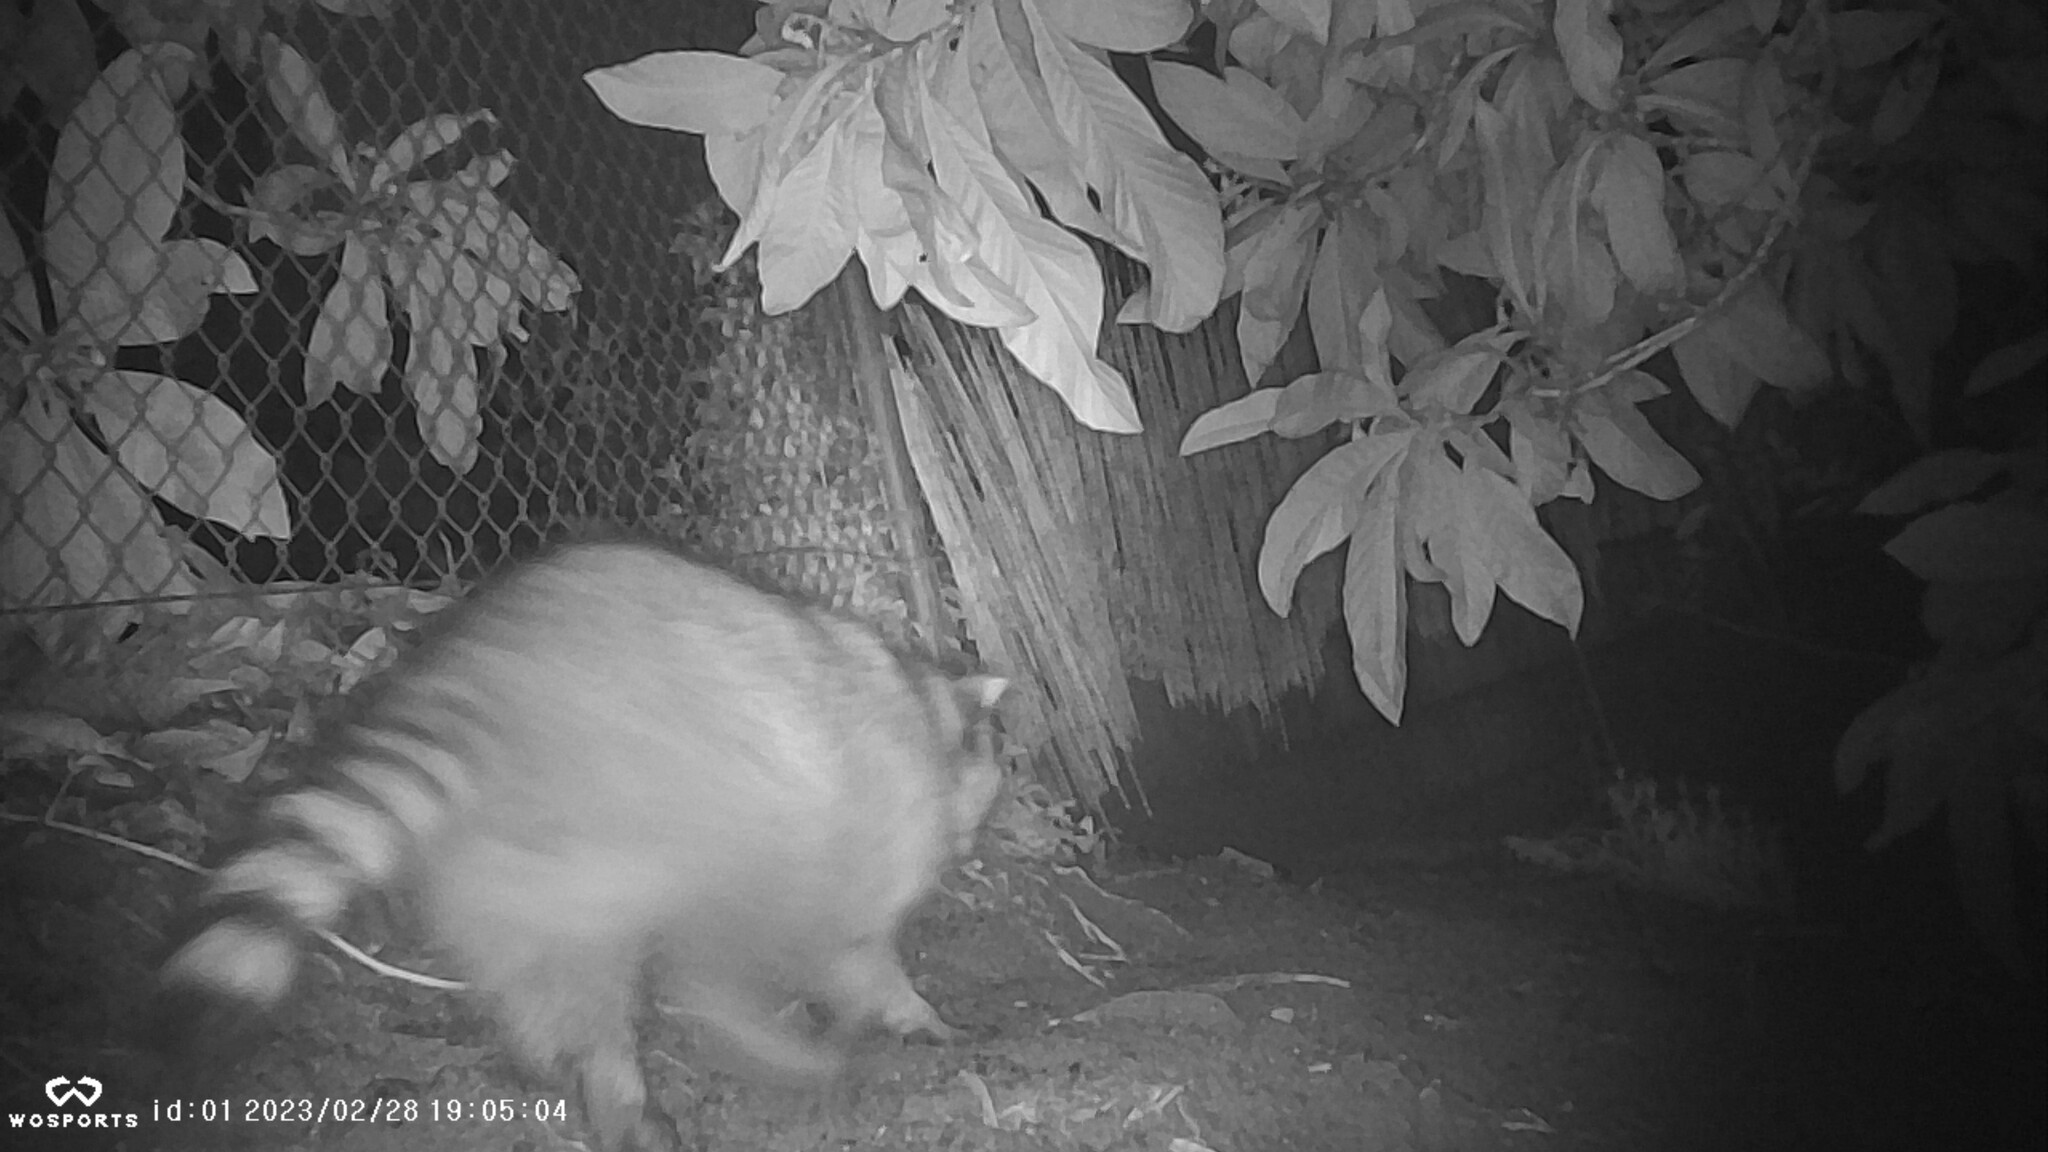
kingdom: Animalia
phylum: Chordata
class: Mammalia
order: Carnivora
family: Procyonidae
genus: Procyon
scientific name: Procyon lotor
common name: Raccoon
